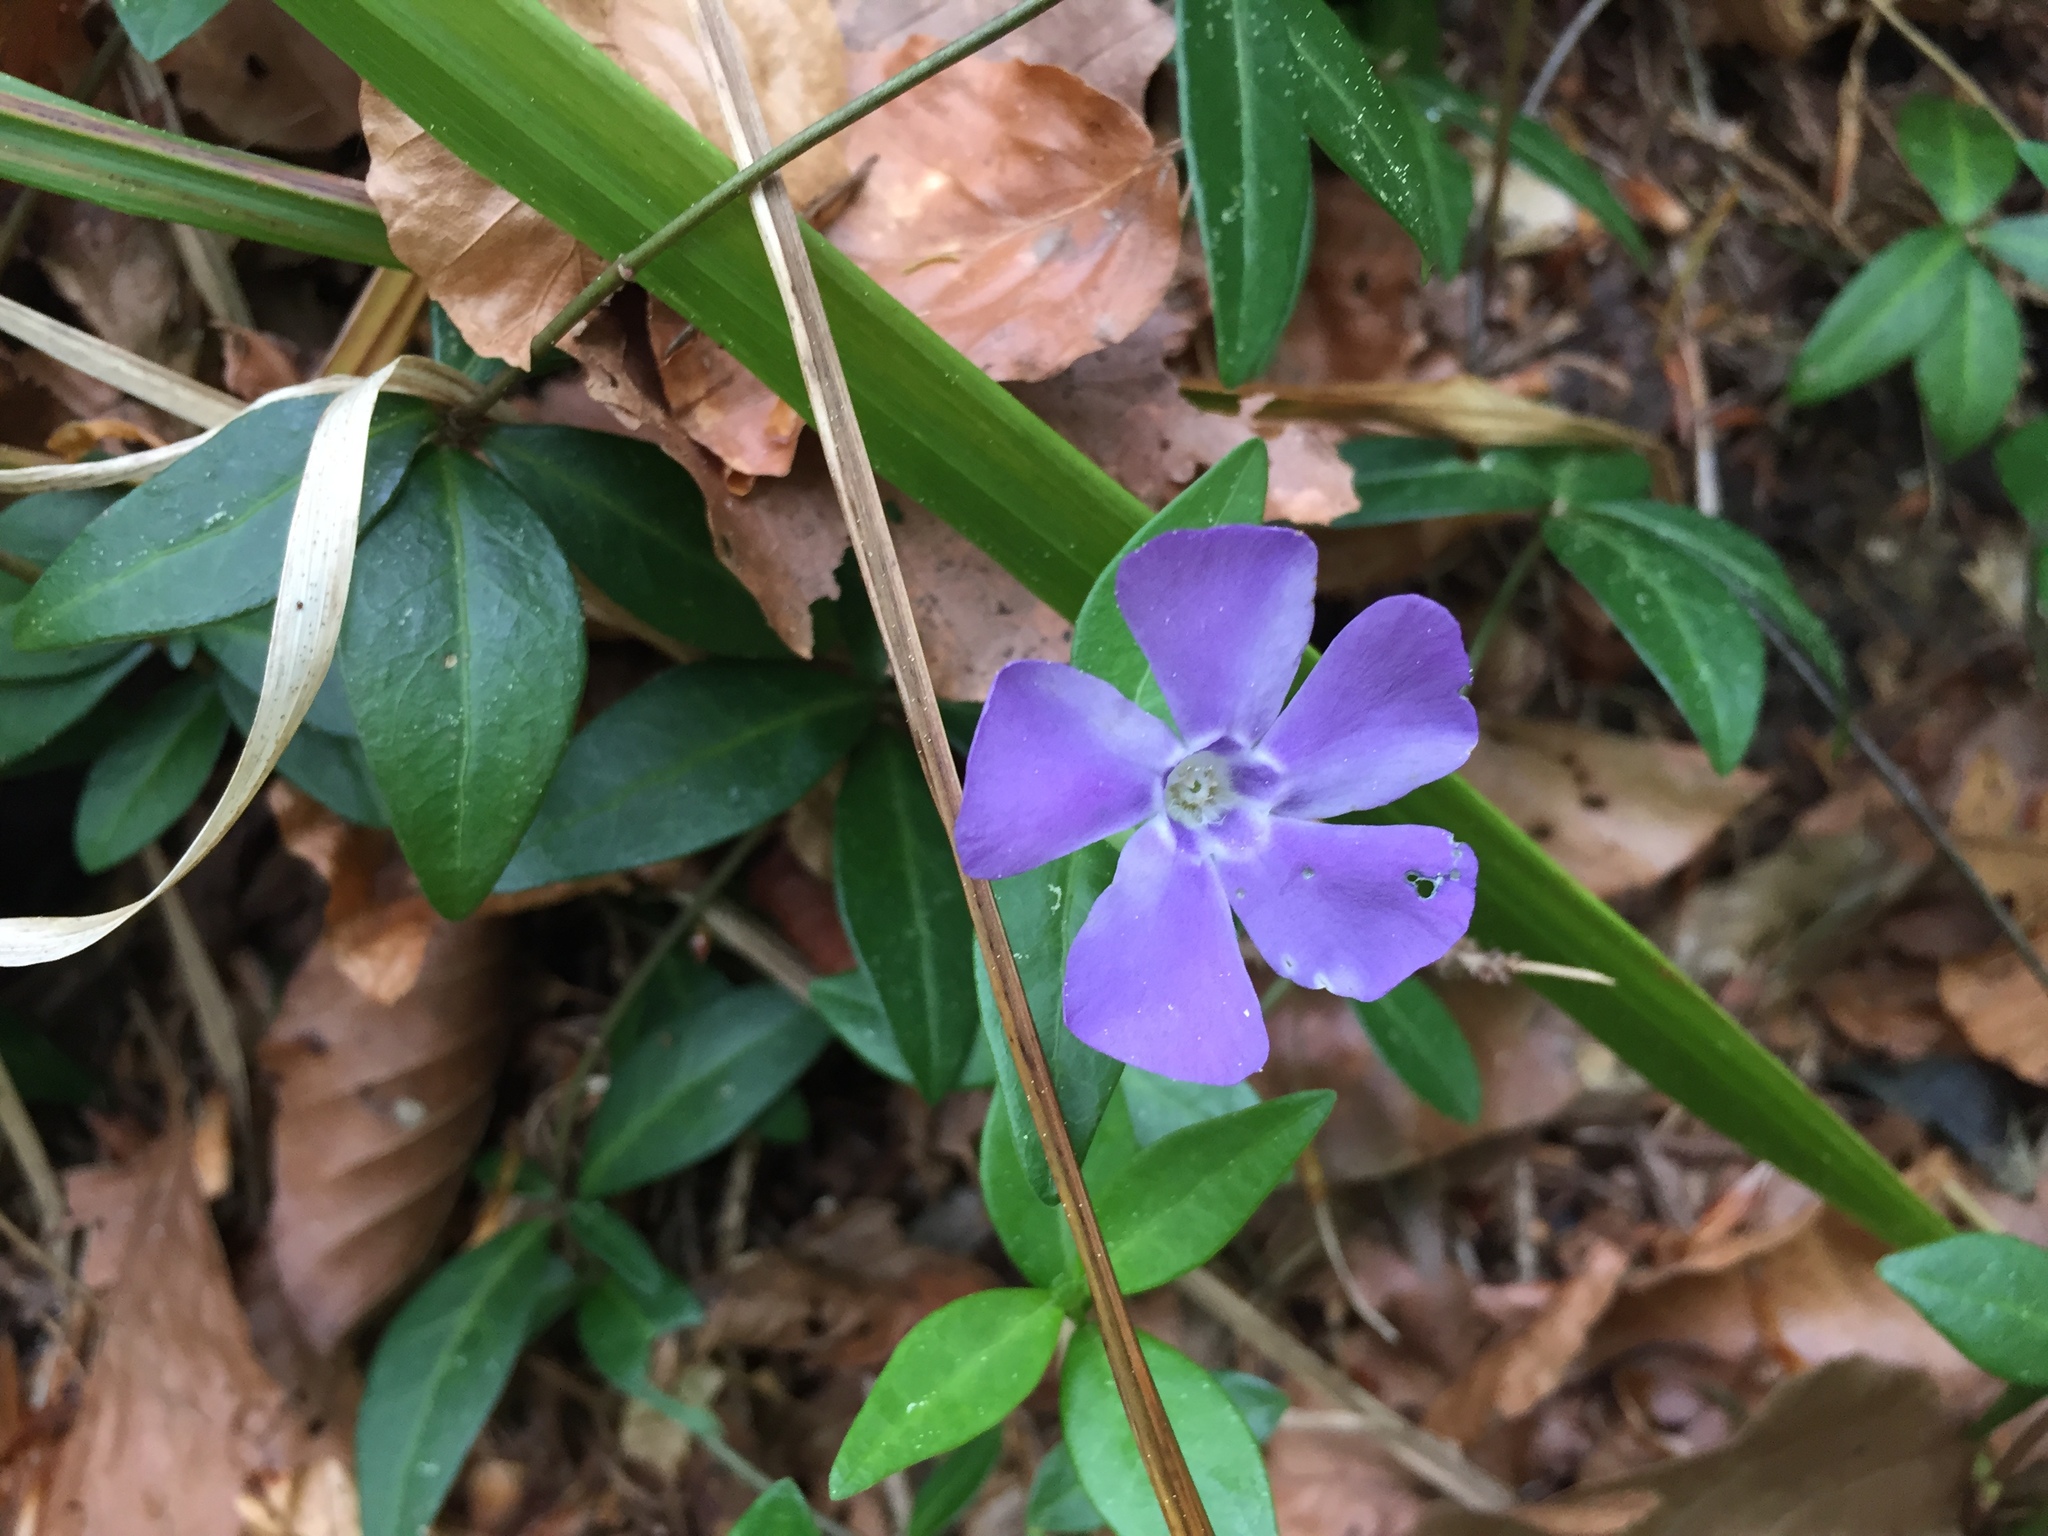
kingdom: Plantae
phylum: Tracheophyta
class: Magnoliopsida
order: Gentianales
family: Apocynaceae
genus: Vinca
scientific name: Vinca minor
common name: Lesser periwinkle
